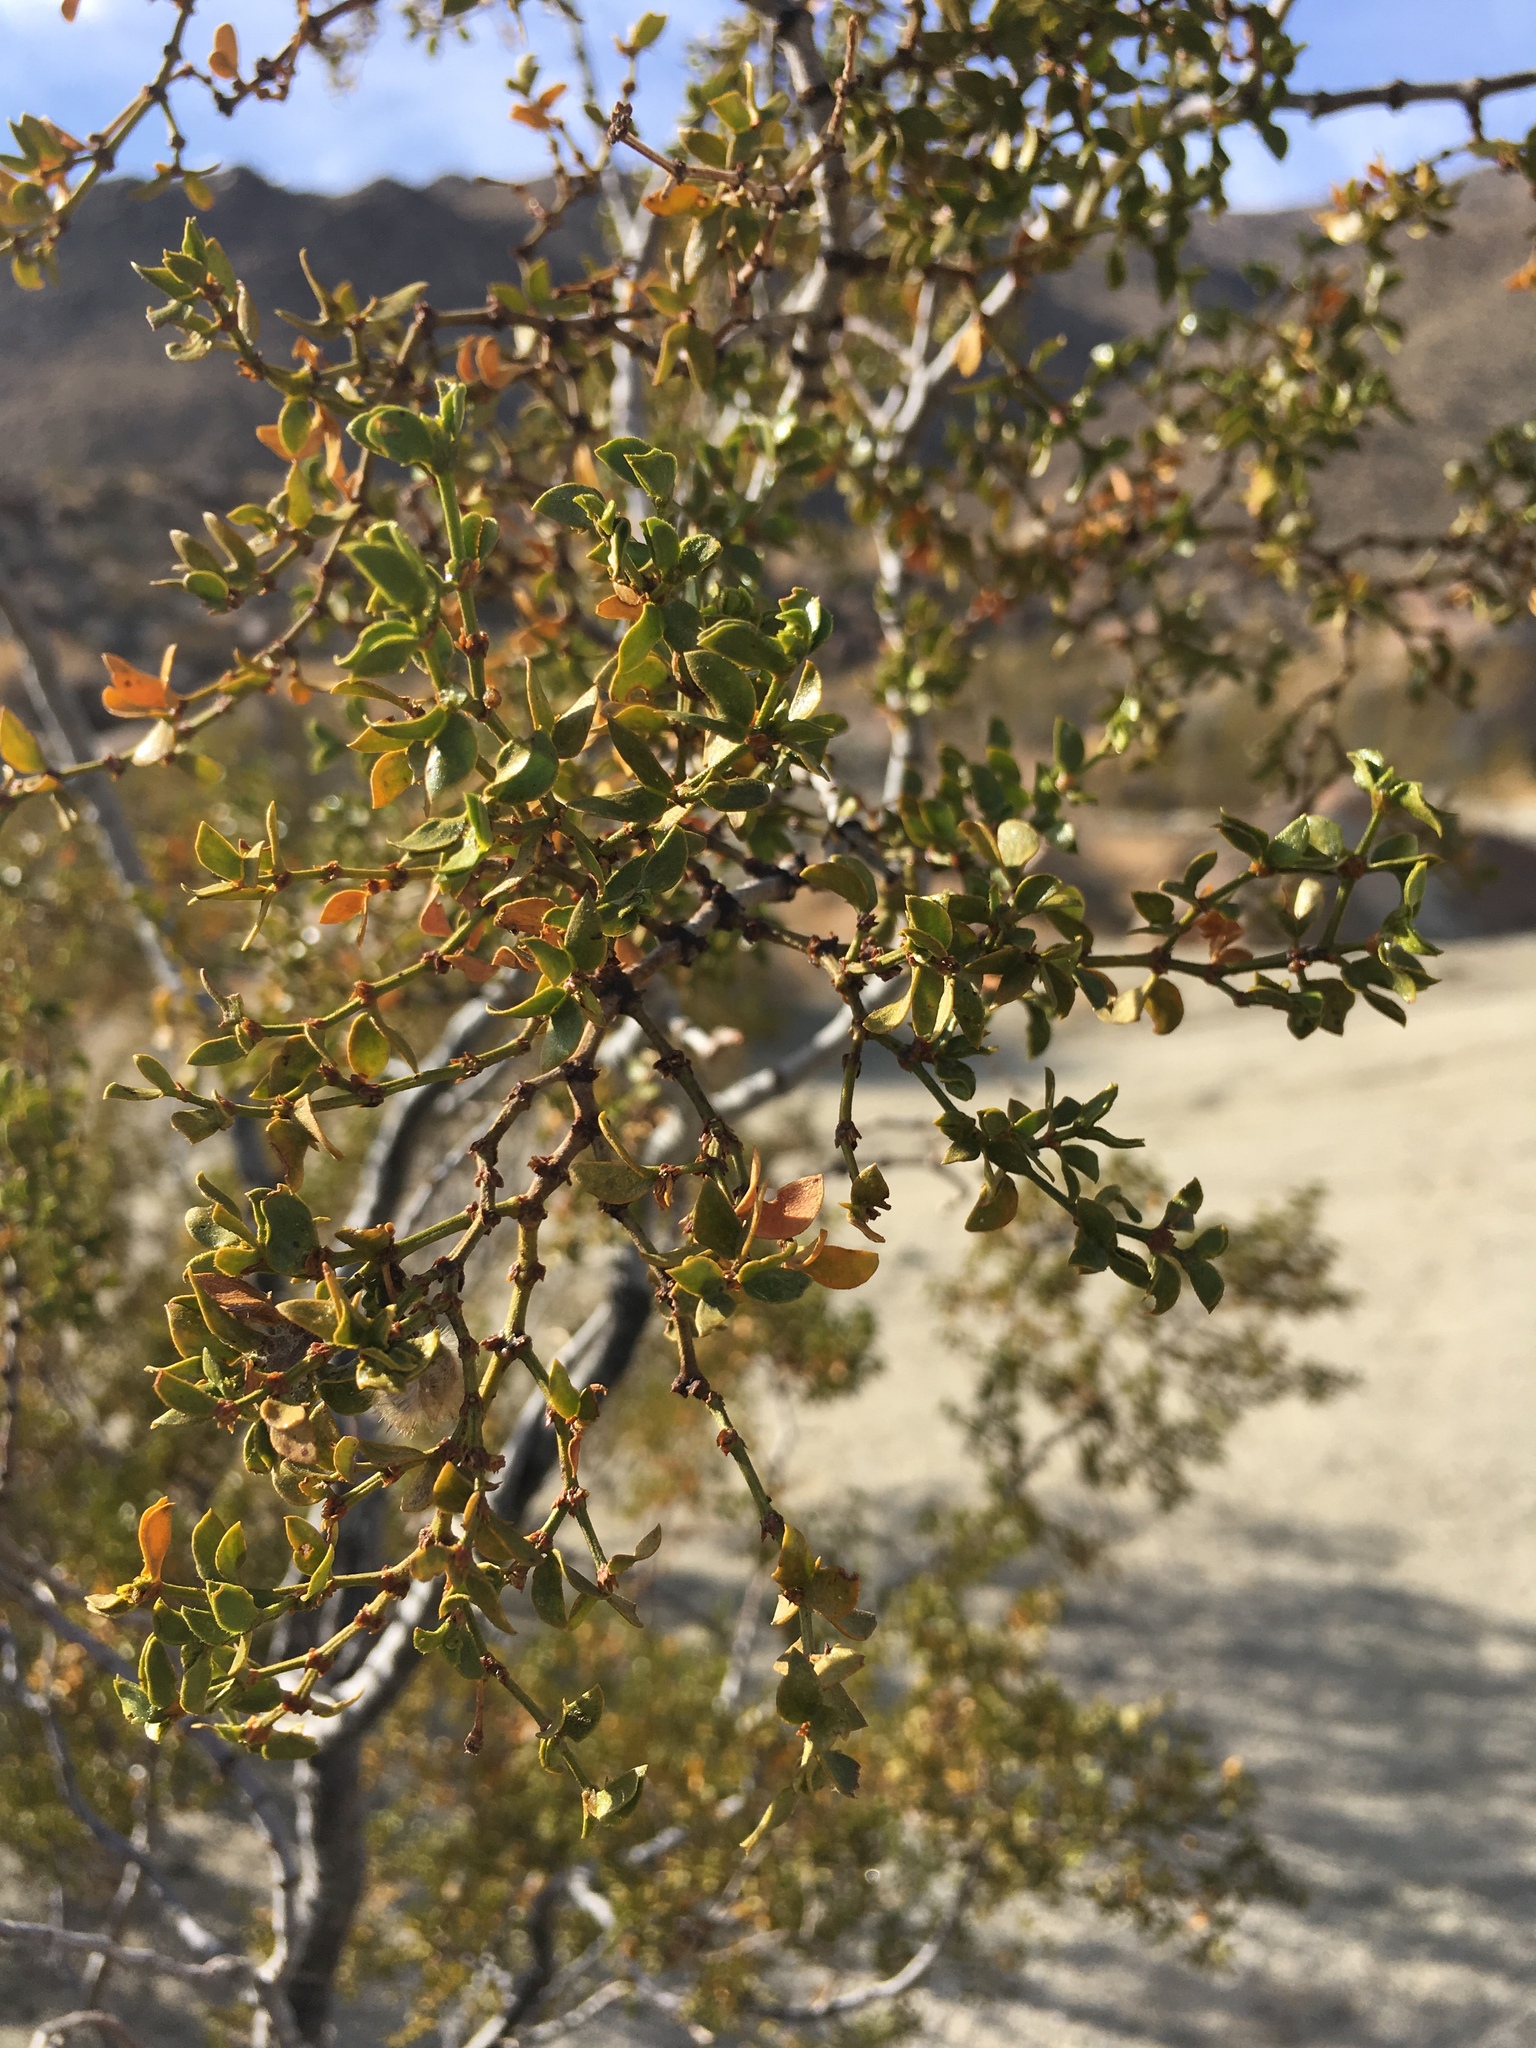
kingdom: Plantae
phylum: Tracheophyta
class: Magnoliopsida
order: Zygophyllales
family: Zygophyllaceae
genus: Larrea
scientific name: Larrea tridentata
